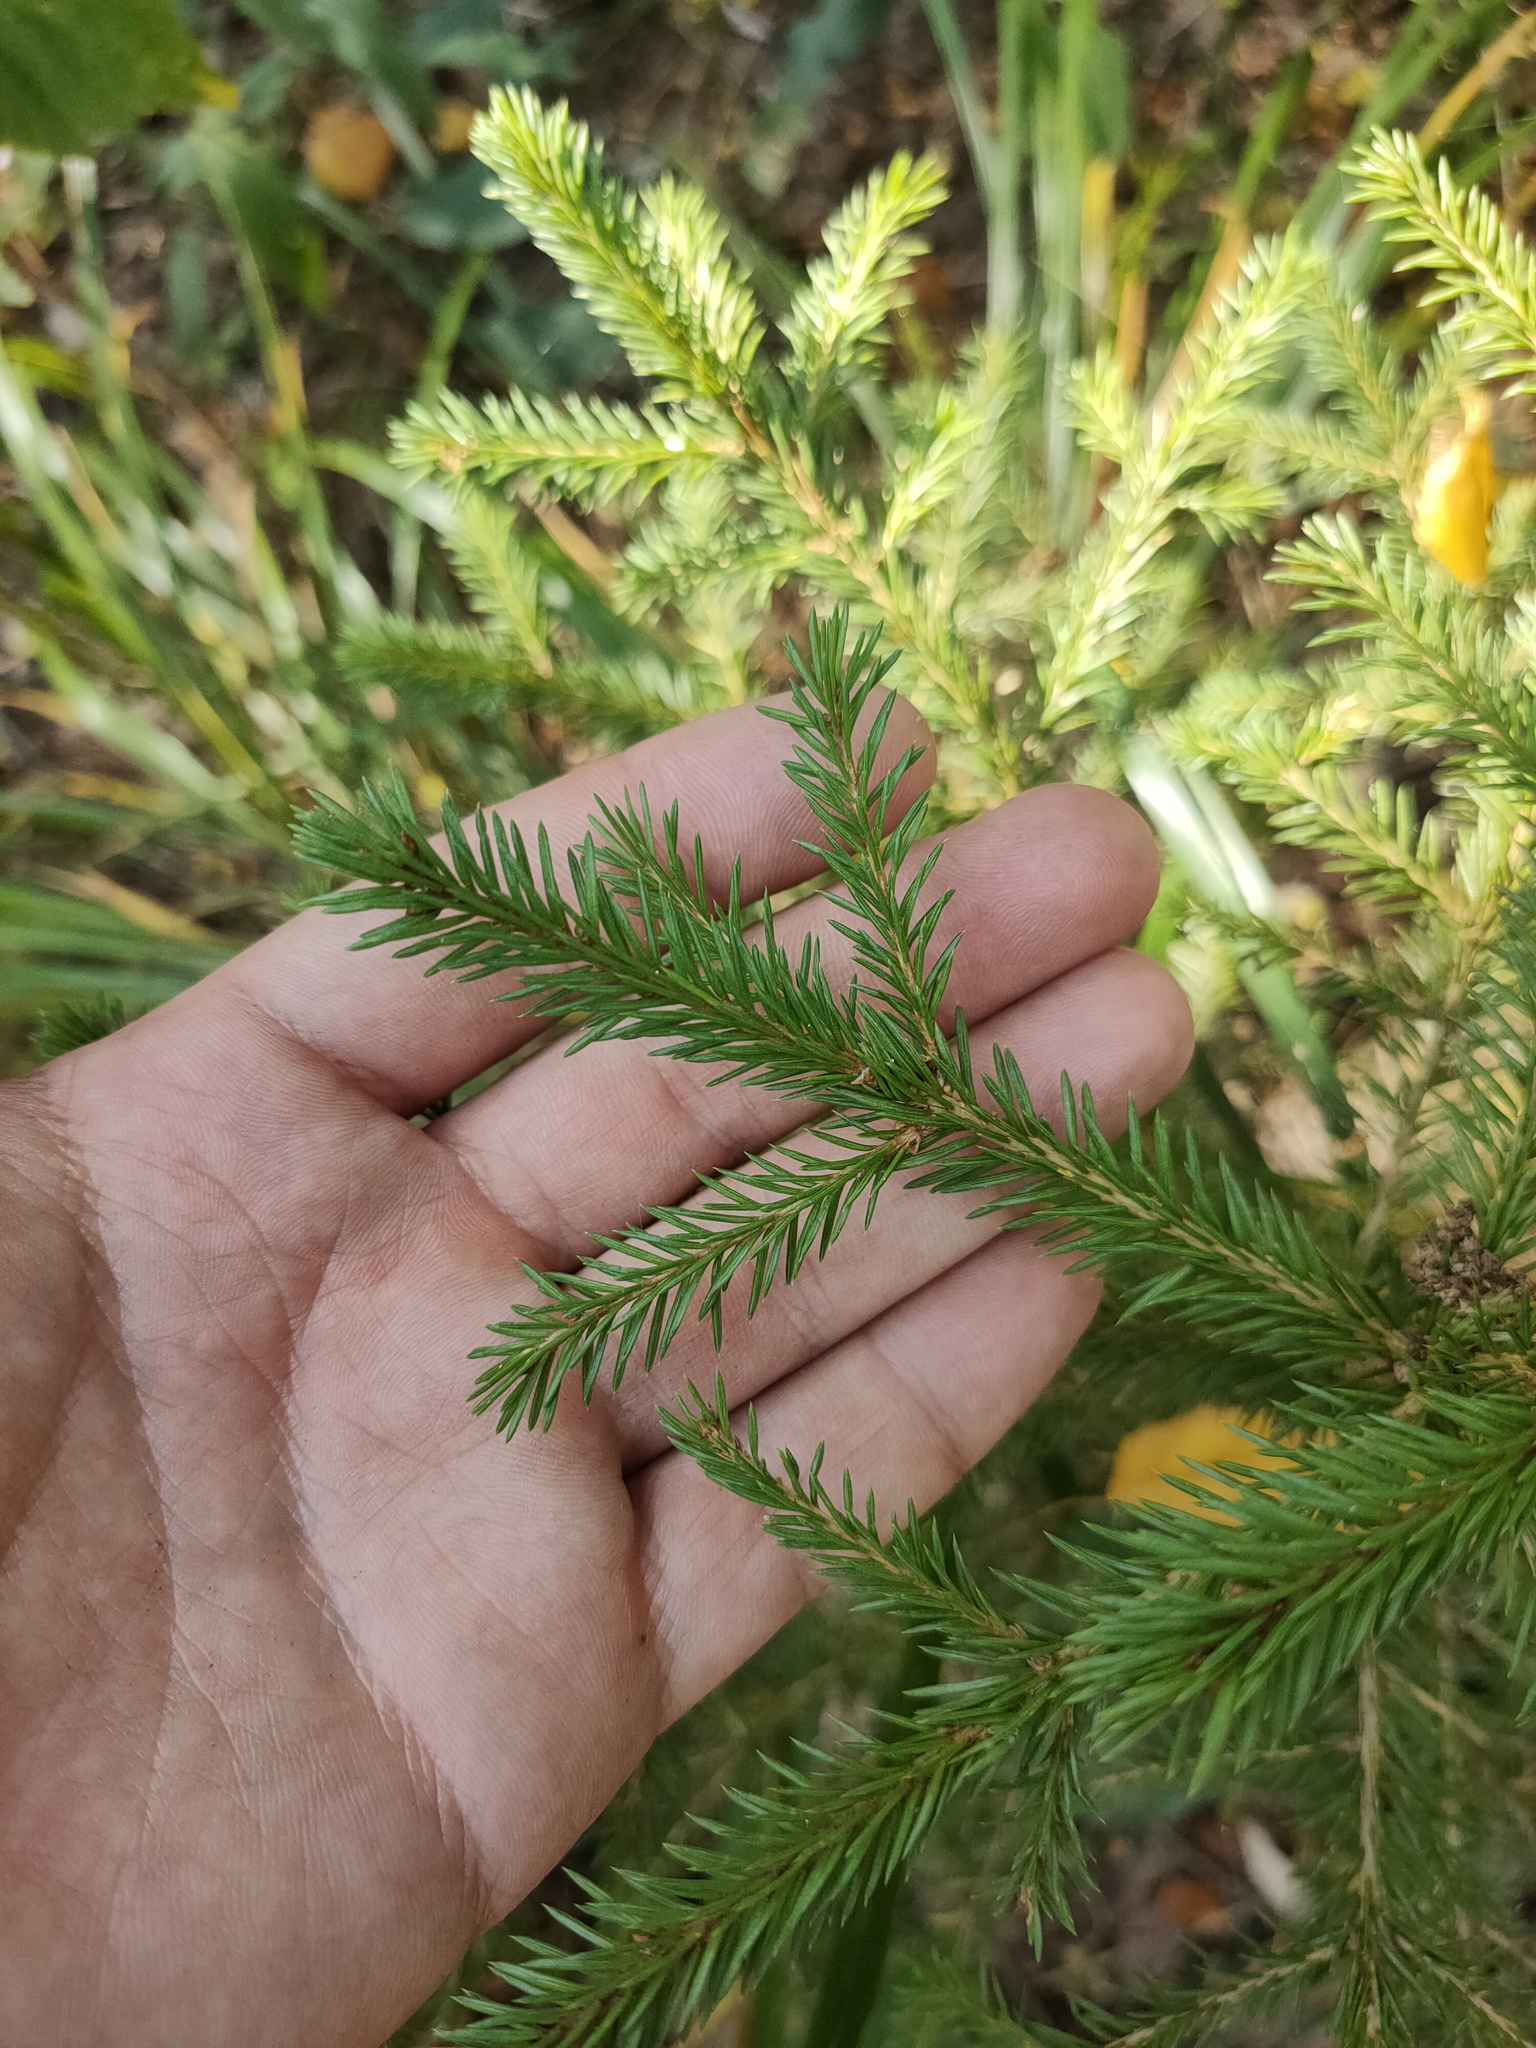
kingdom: Plantae
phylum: Tracheophyta
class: Pinopsida
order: Pinales
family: Pinaceae
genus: Picea
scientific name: Picea
